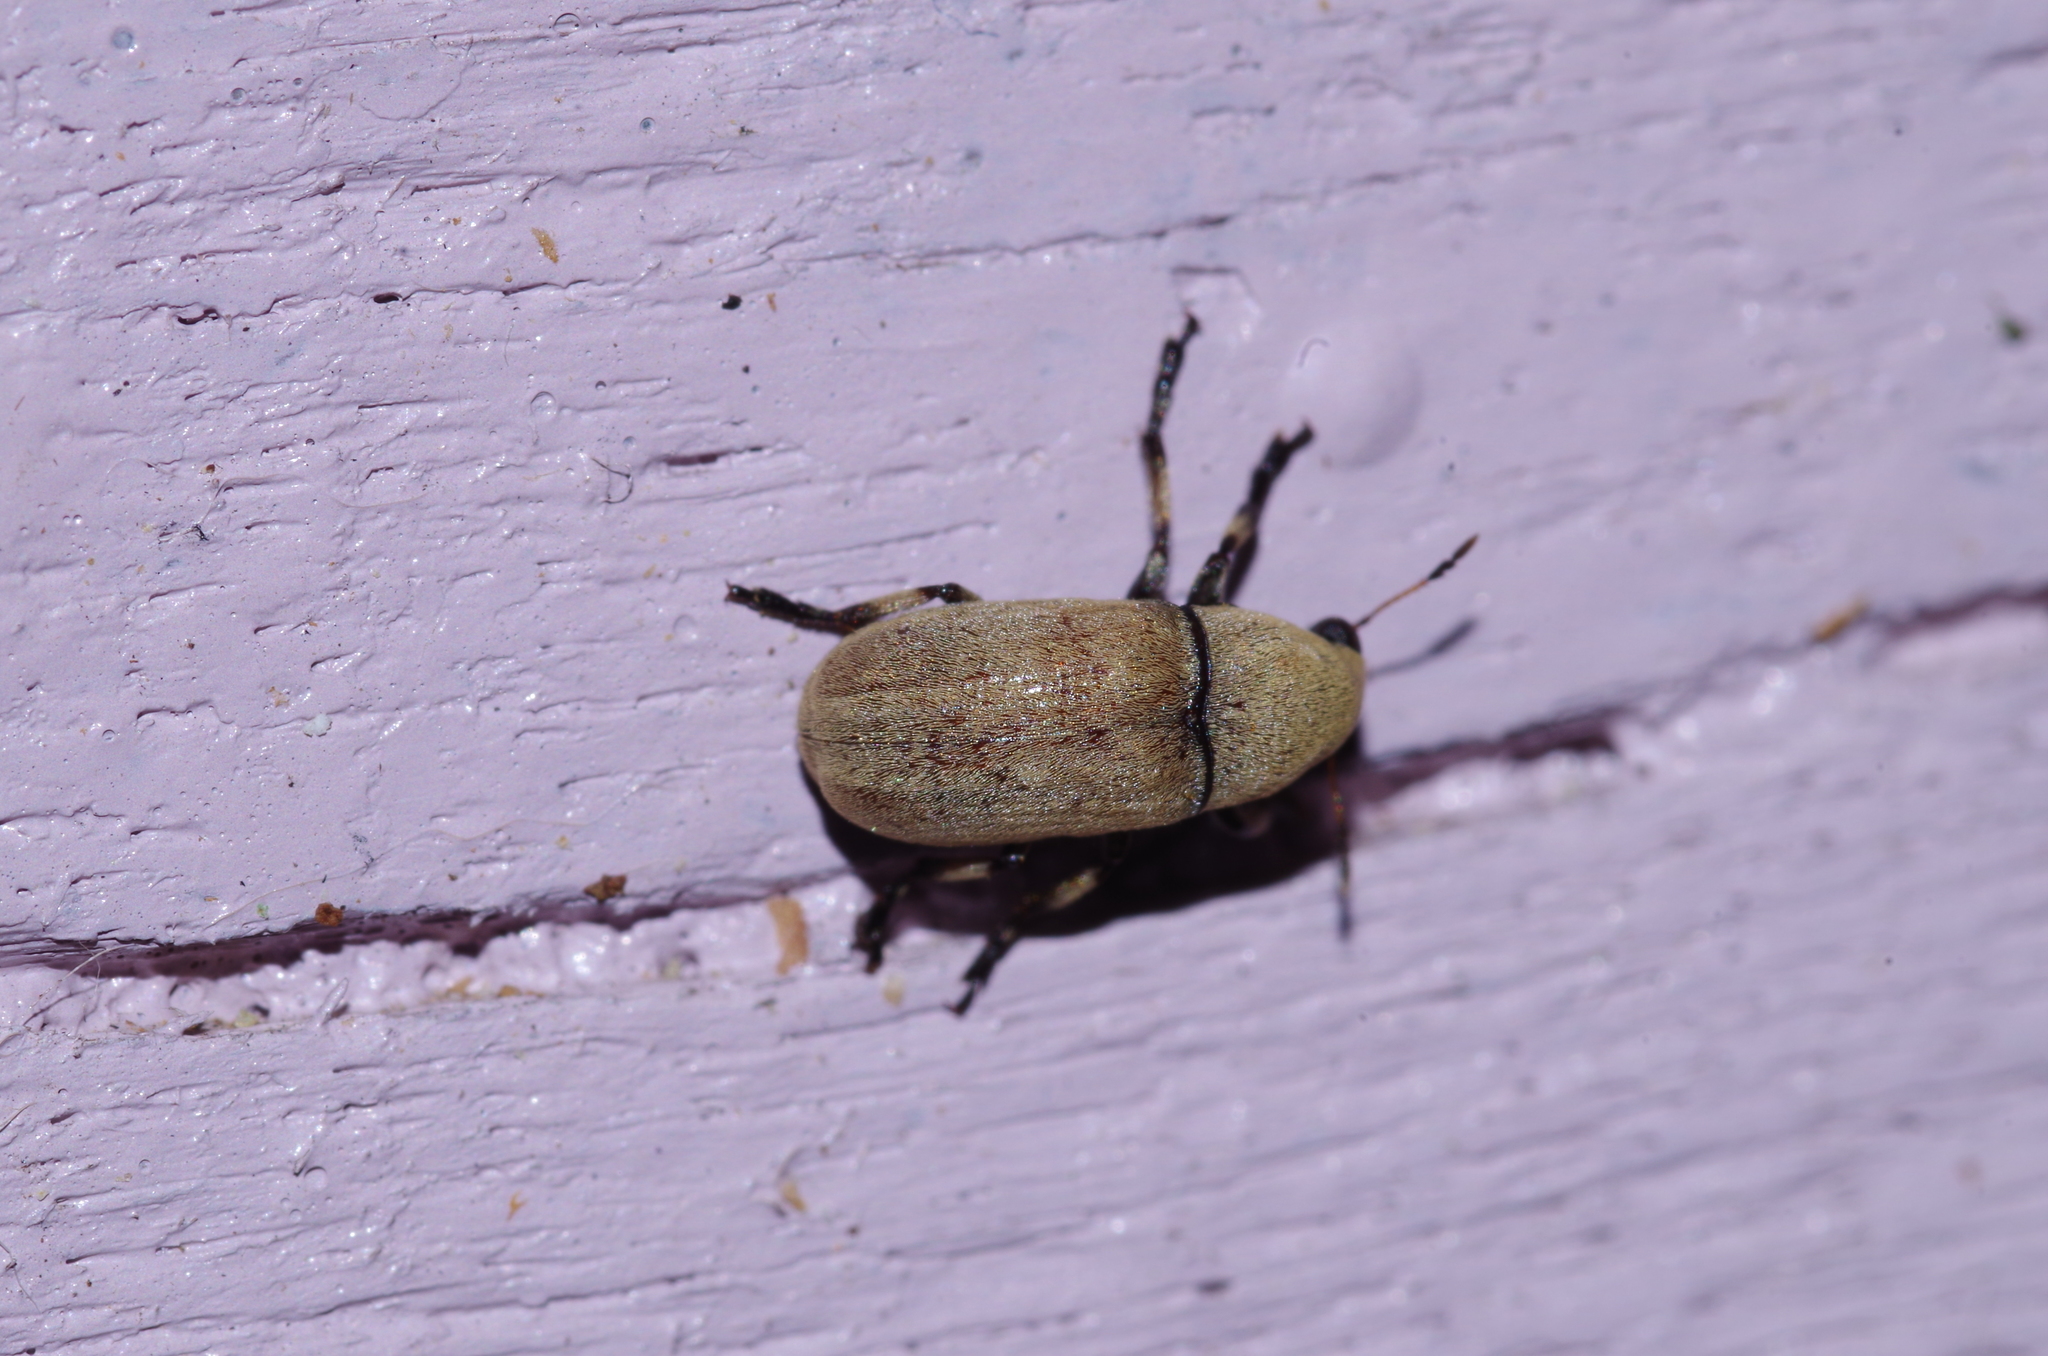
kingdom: Animalia
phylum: Arthropoda
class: Insecta
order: Coleoptera
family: Anthribidae
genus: Euparius
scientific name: Euparius concolor
